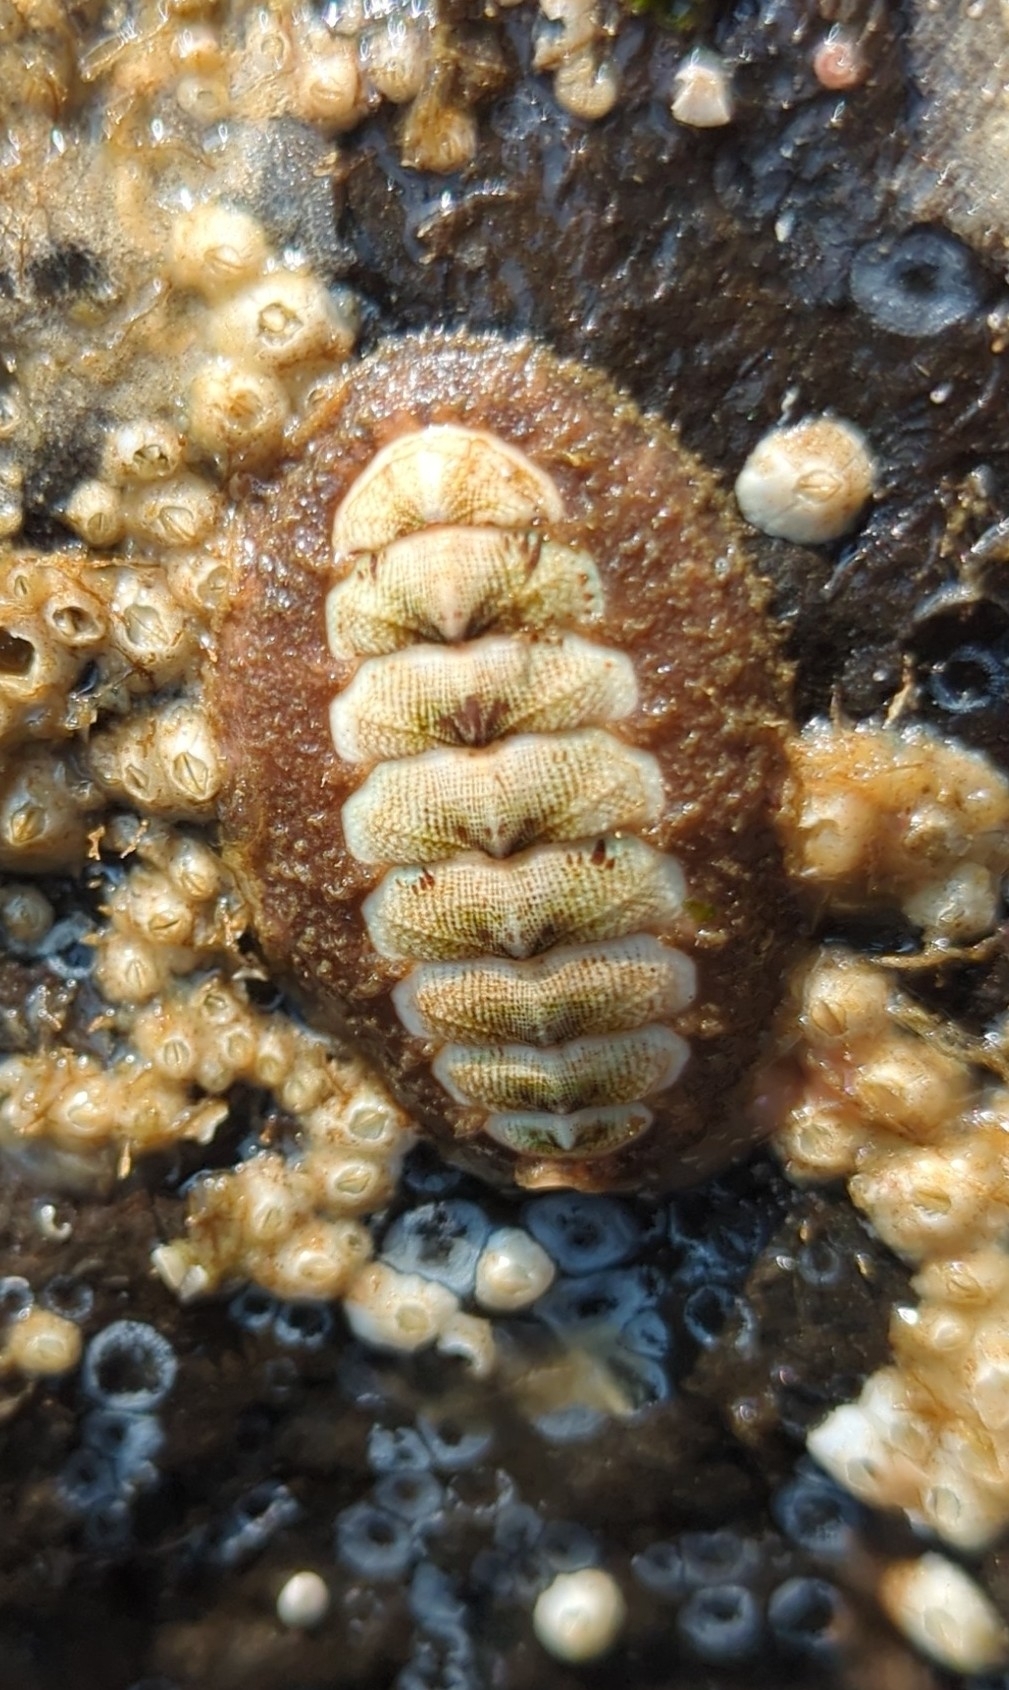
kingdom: Animalia
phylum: Mollusca
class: Polyplacophora
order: Chitonida
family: Mopaliidae
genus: Mopalia
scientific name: Mopalia ciliata
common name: Hairy chiton
